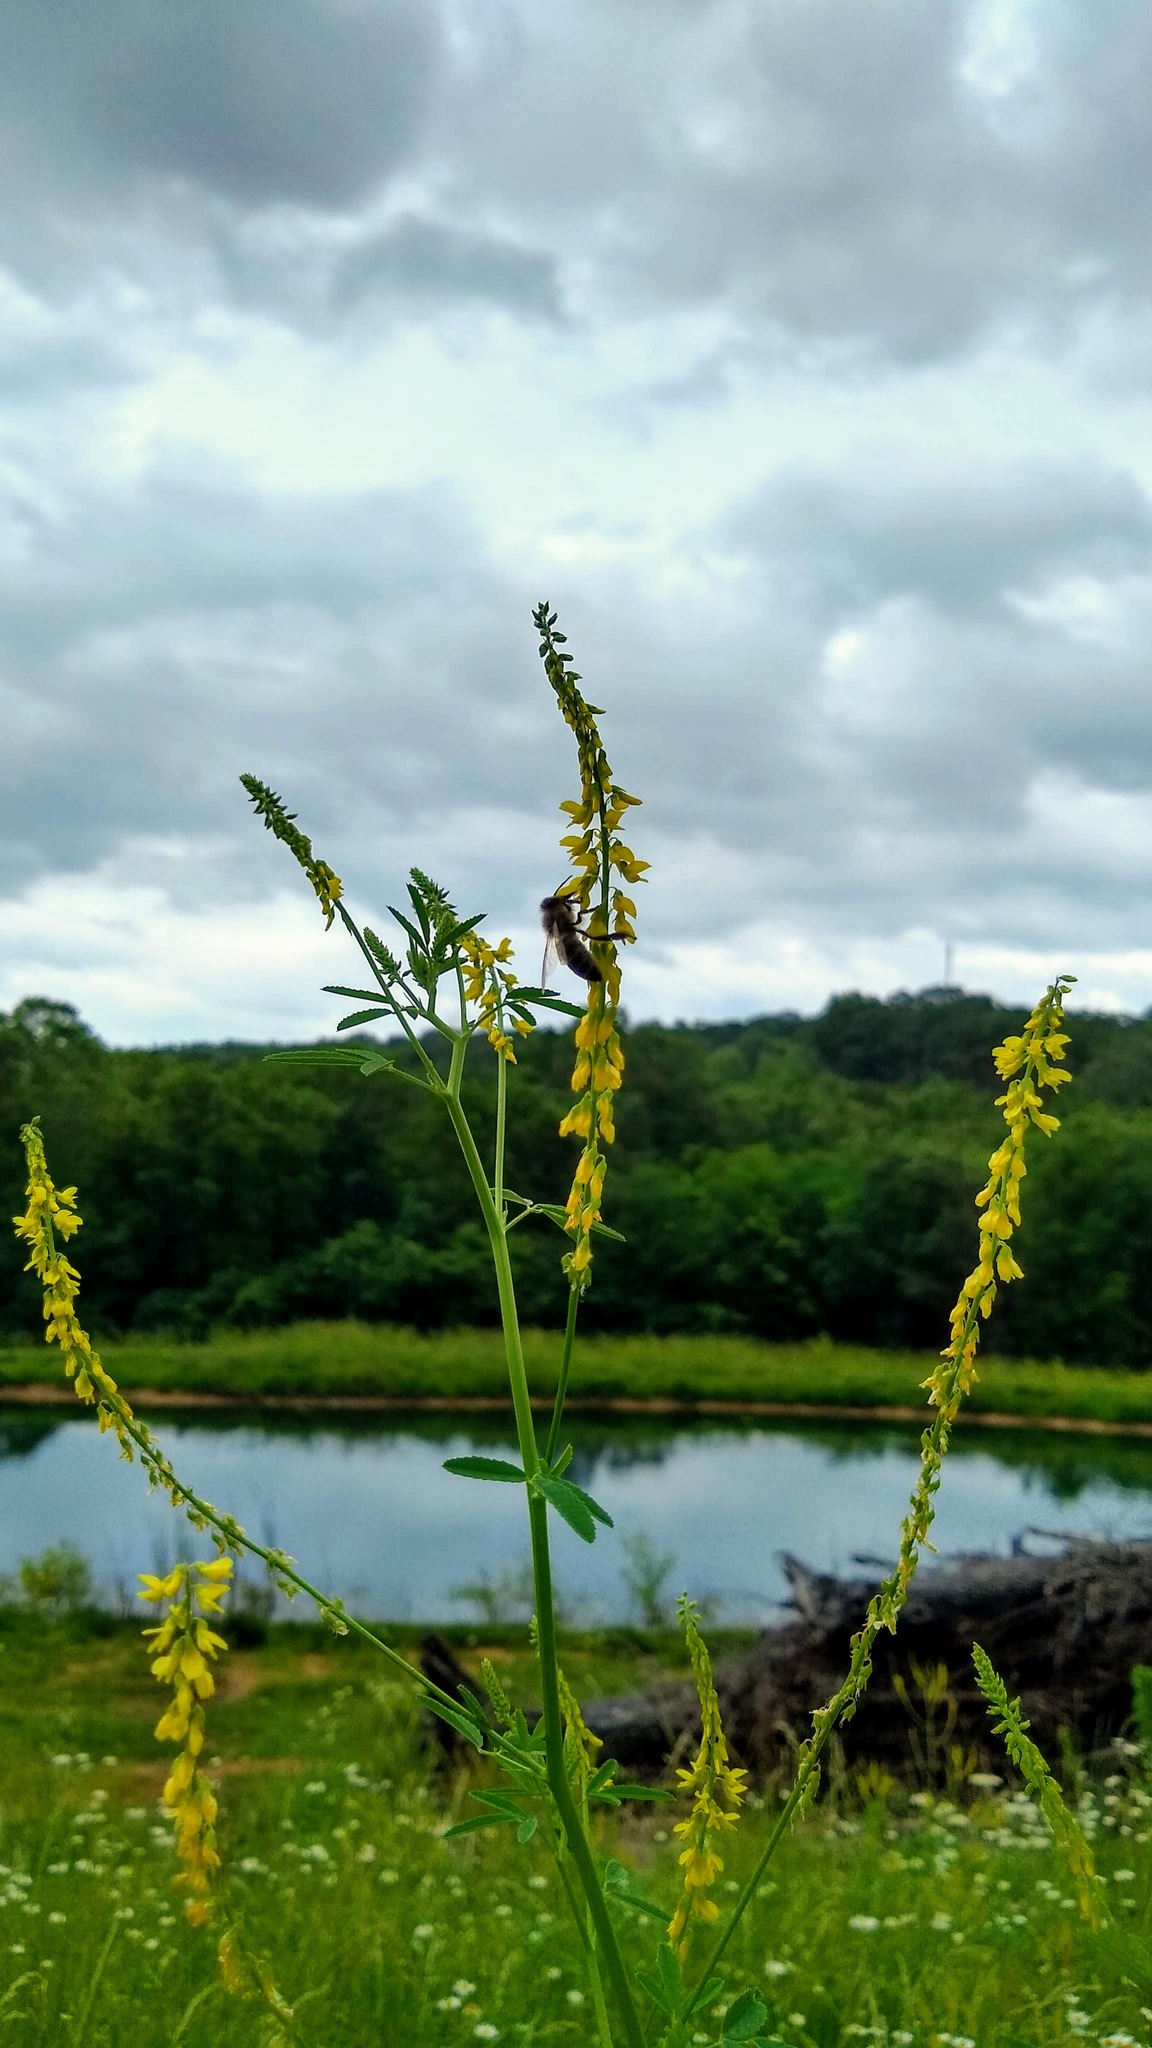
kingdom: Plantae
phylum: Tracheophyta
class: Magnoliopsida
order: Fabales
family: Fabaceae
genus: Melilotus
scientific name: Melilotus officinalis
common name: Sweetclover
